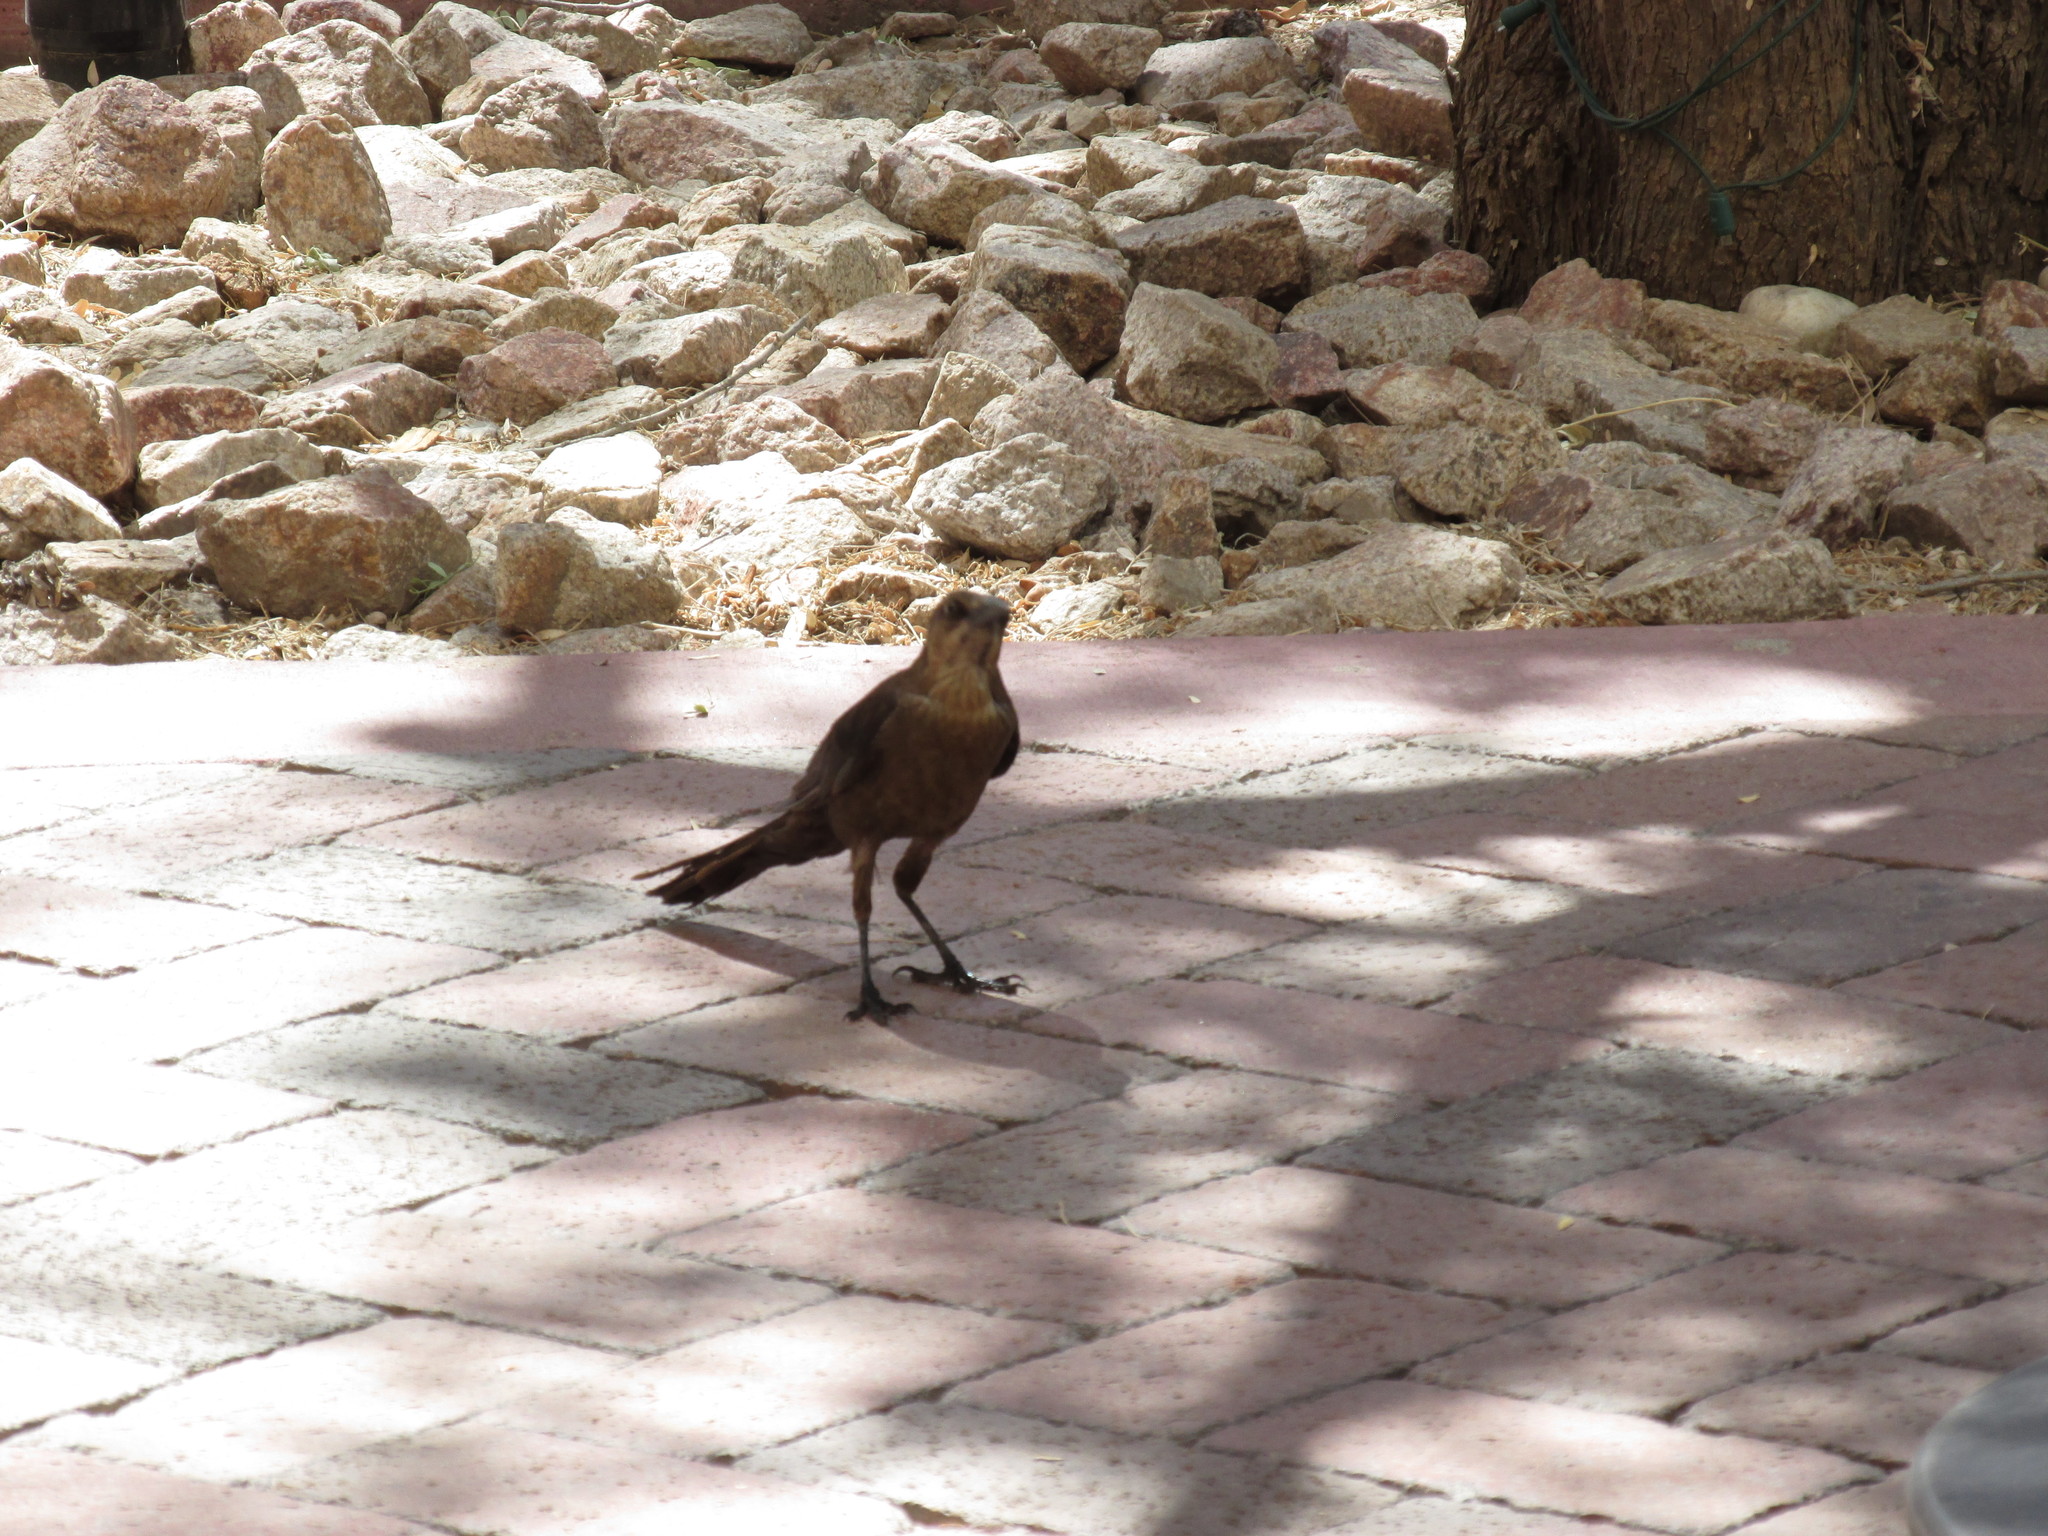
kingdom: Animalia
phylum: Chordata
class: Aves
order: Passeriformes
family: Icteridae
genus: Quiscalus
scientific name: Quiscalus mexicanus
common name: Great-tailed grackle
